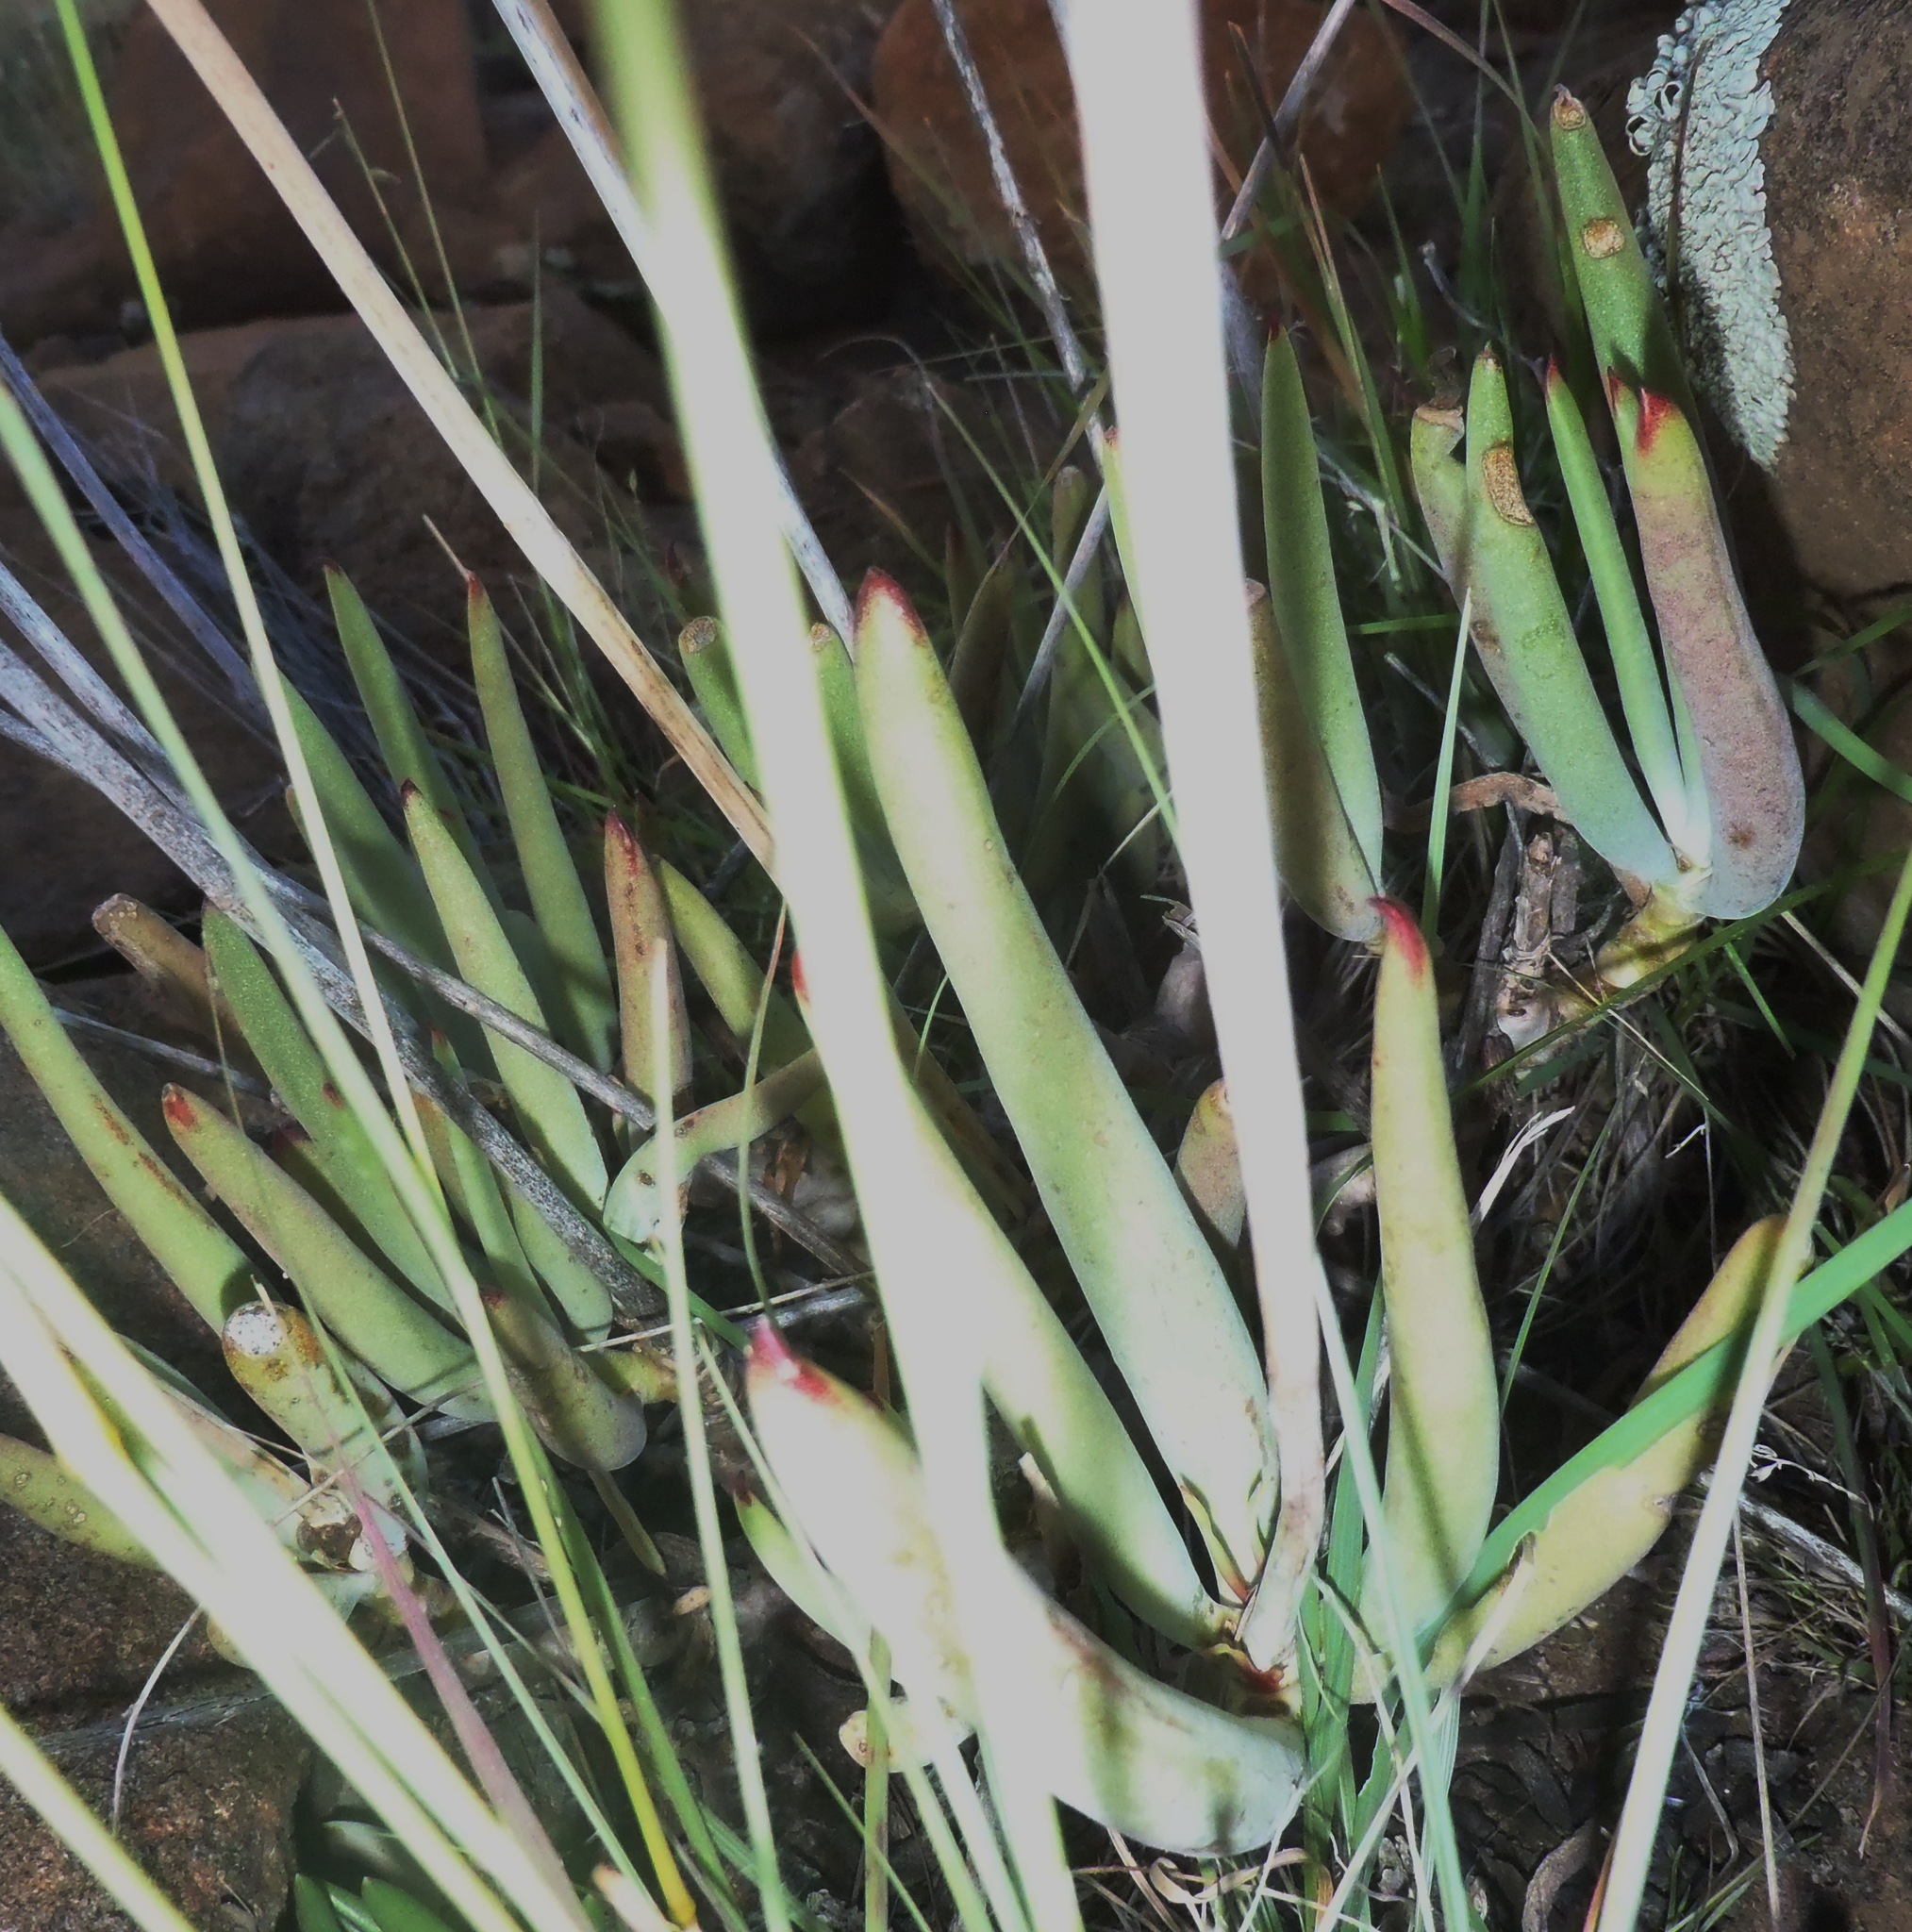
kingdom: Plantae
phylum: Tracheophyta
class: Magnoliopsida
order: Saxifragales
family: Crassulaceae
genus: Cotyledon
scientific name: Cotyledon orbiculata
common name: Pig's ear
